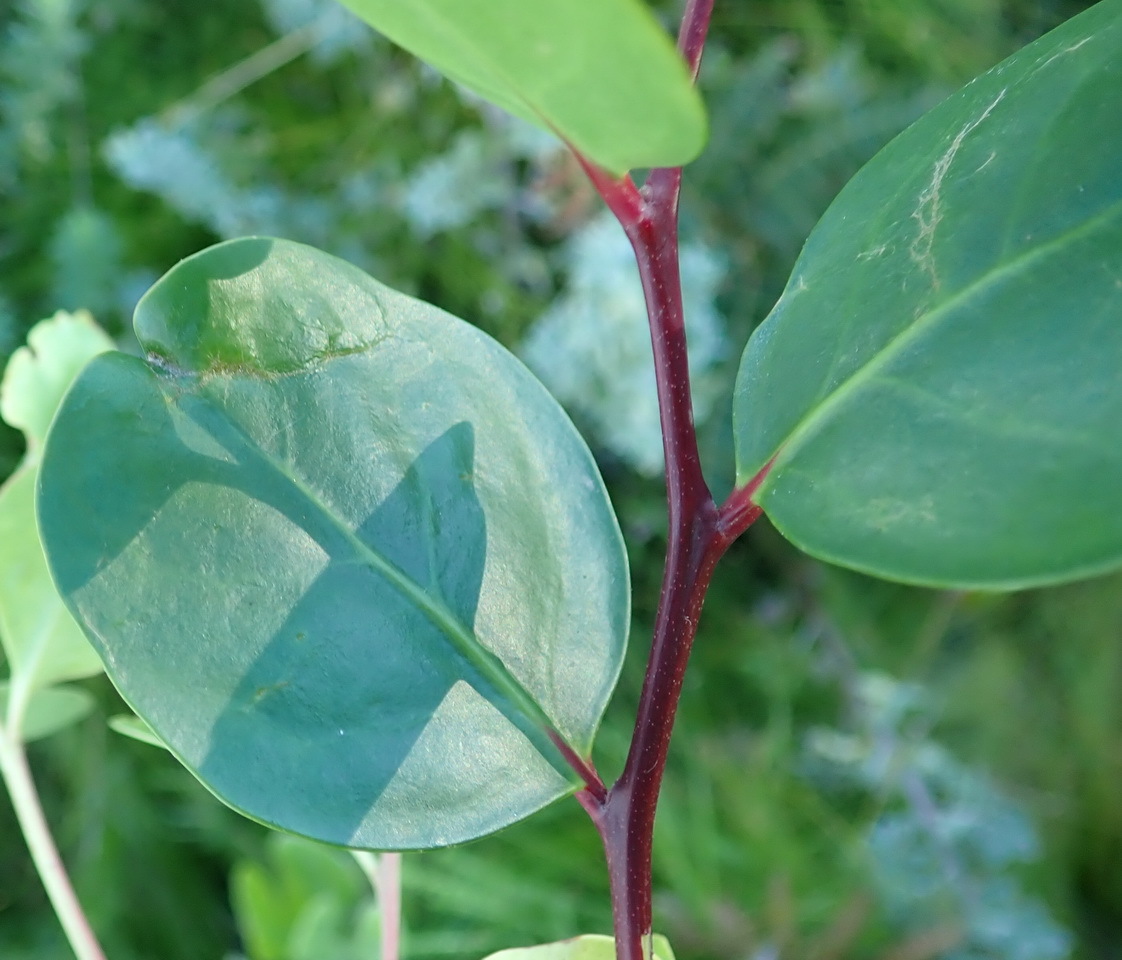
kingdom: Plantae
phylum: Tracheophyta
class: Magnoliopsida
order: Celastrales
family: Celastraceae
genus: Pterocelastrus
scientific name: Pterocelastrus tricuspidatus
